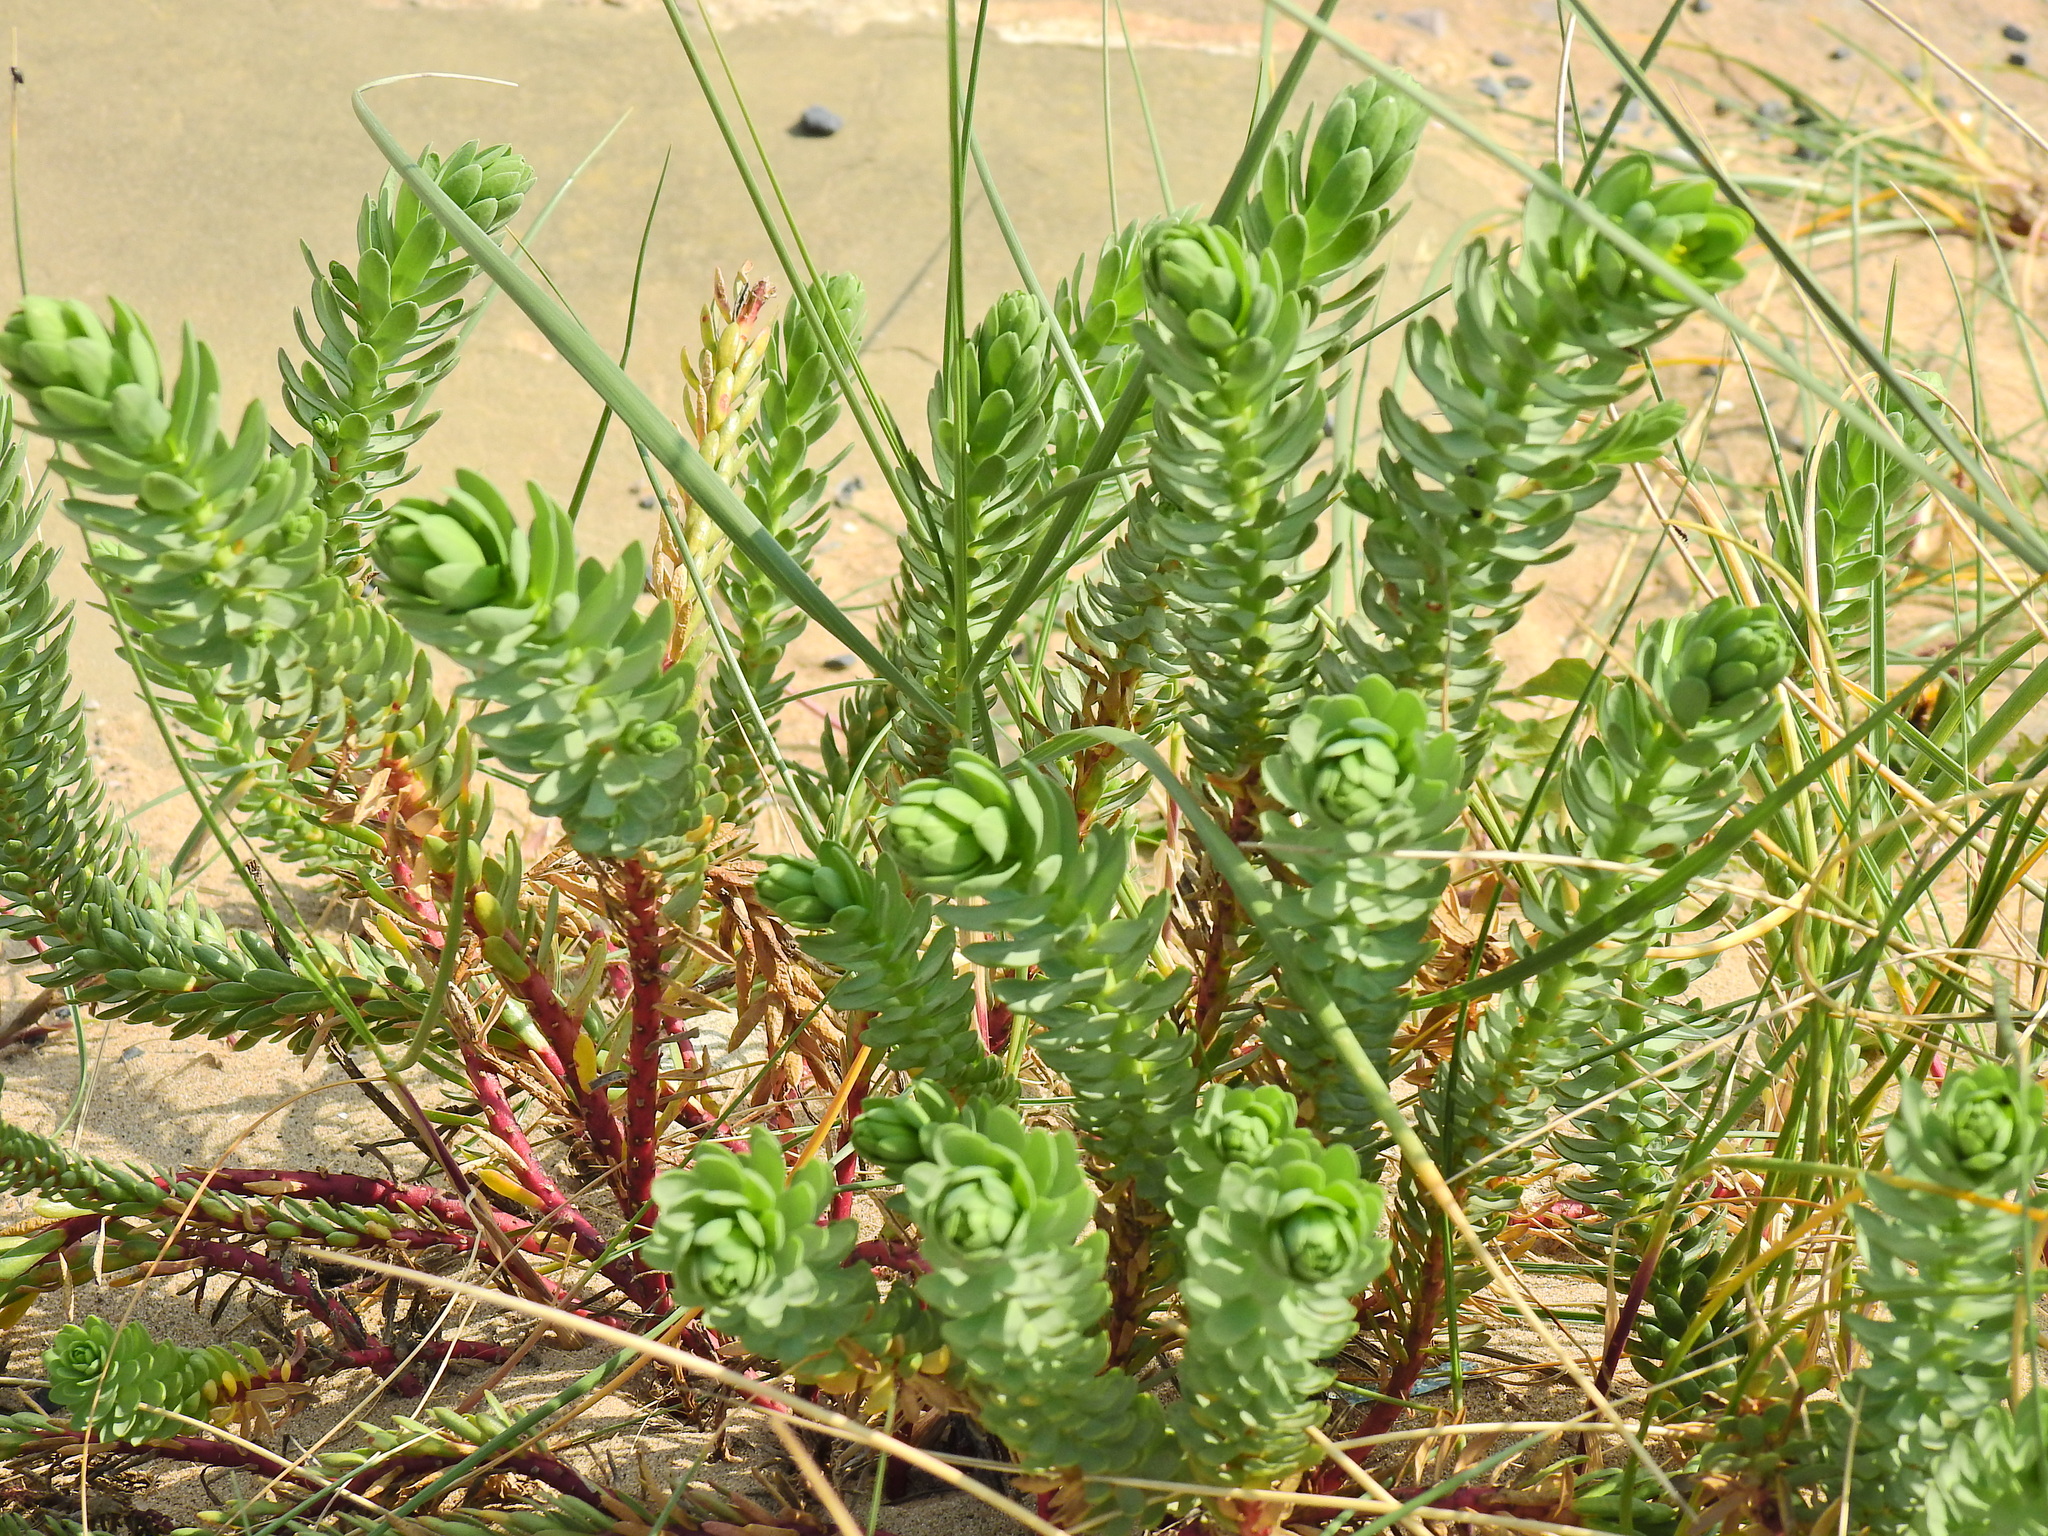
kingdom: Plantae
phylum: Tracheophyta
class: Magnoliopsida
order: Malpighiales
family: Euphorbiaceae
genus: Euphorbia
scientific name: Euphorbia paralias
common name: Sea spurge
